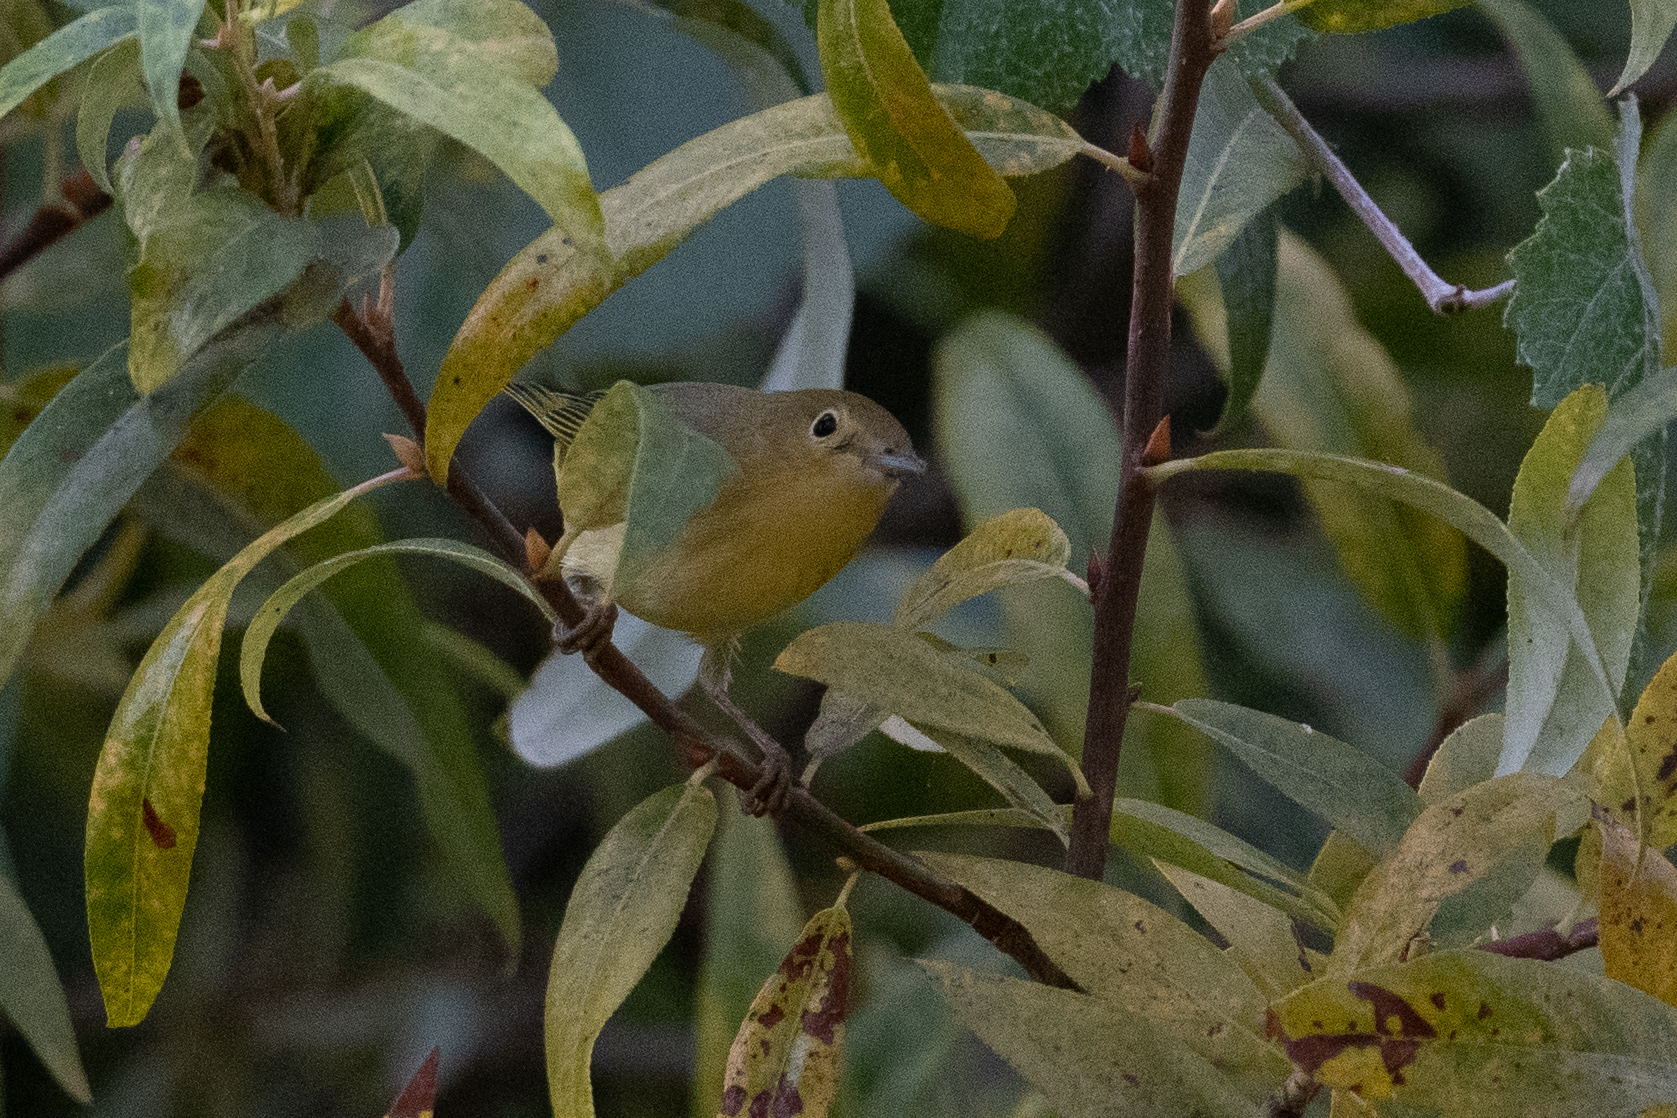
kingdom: Animalia
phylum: Chordata
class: Aves
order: Passeriformes
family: Parulidae
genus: Setophaga
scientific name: Setophaga petechia
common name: Yellow warbler
